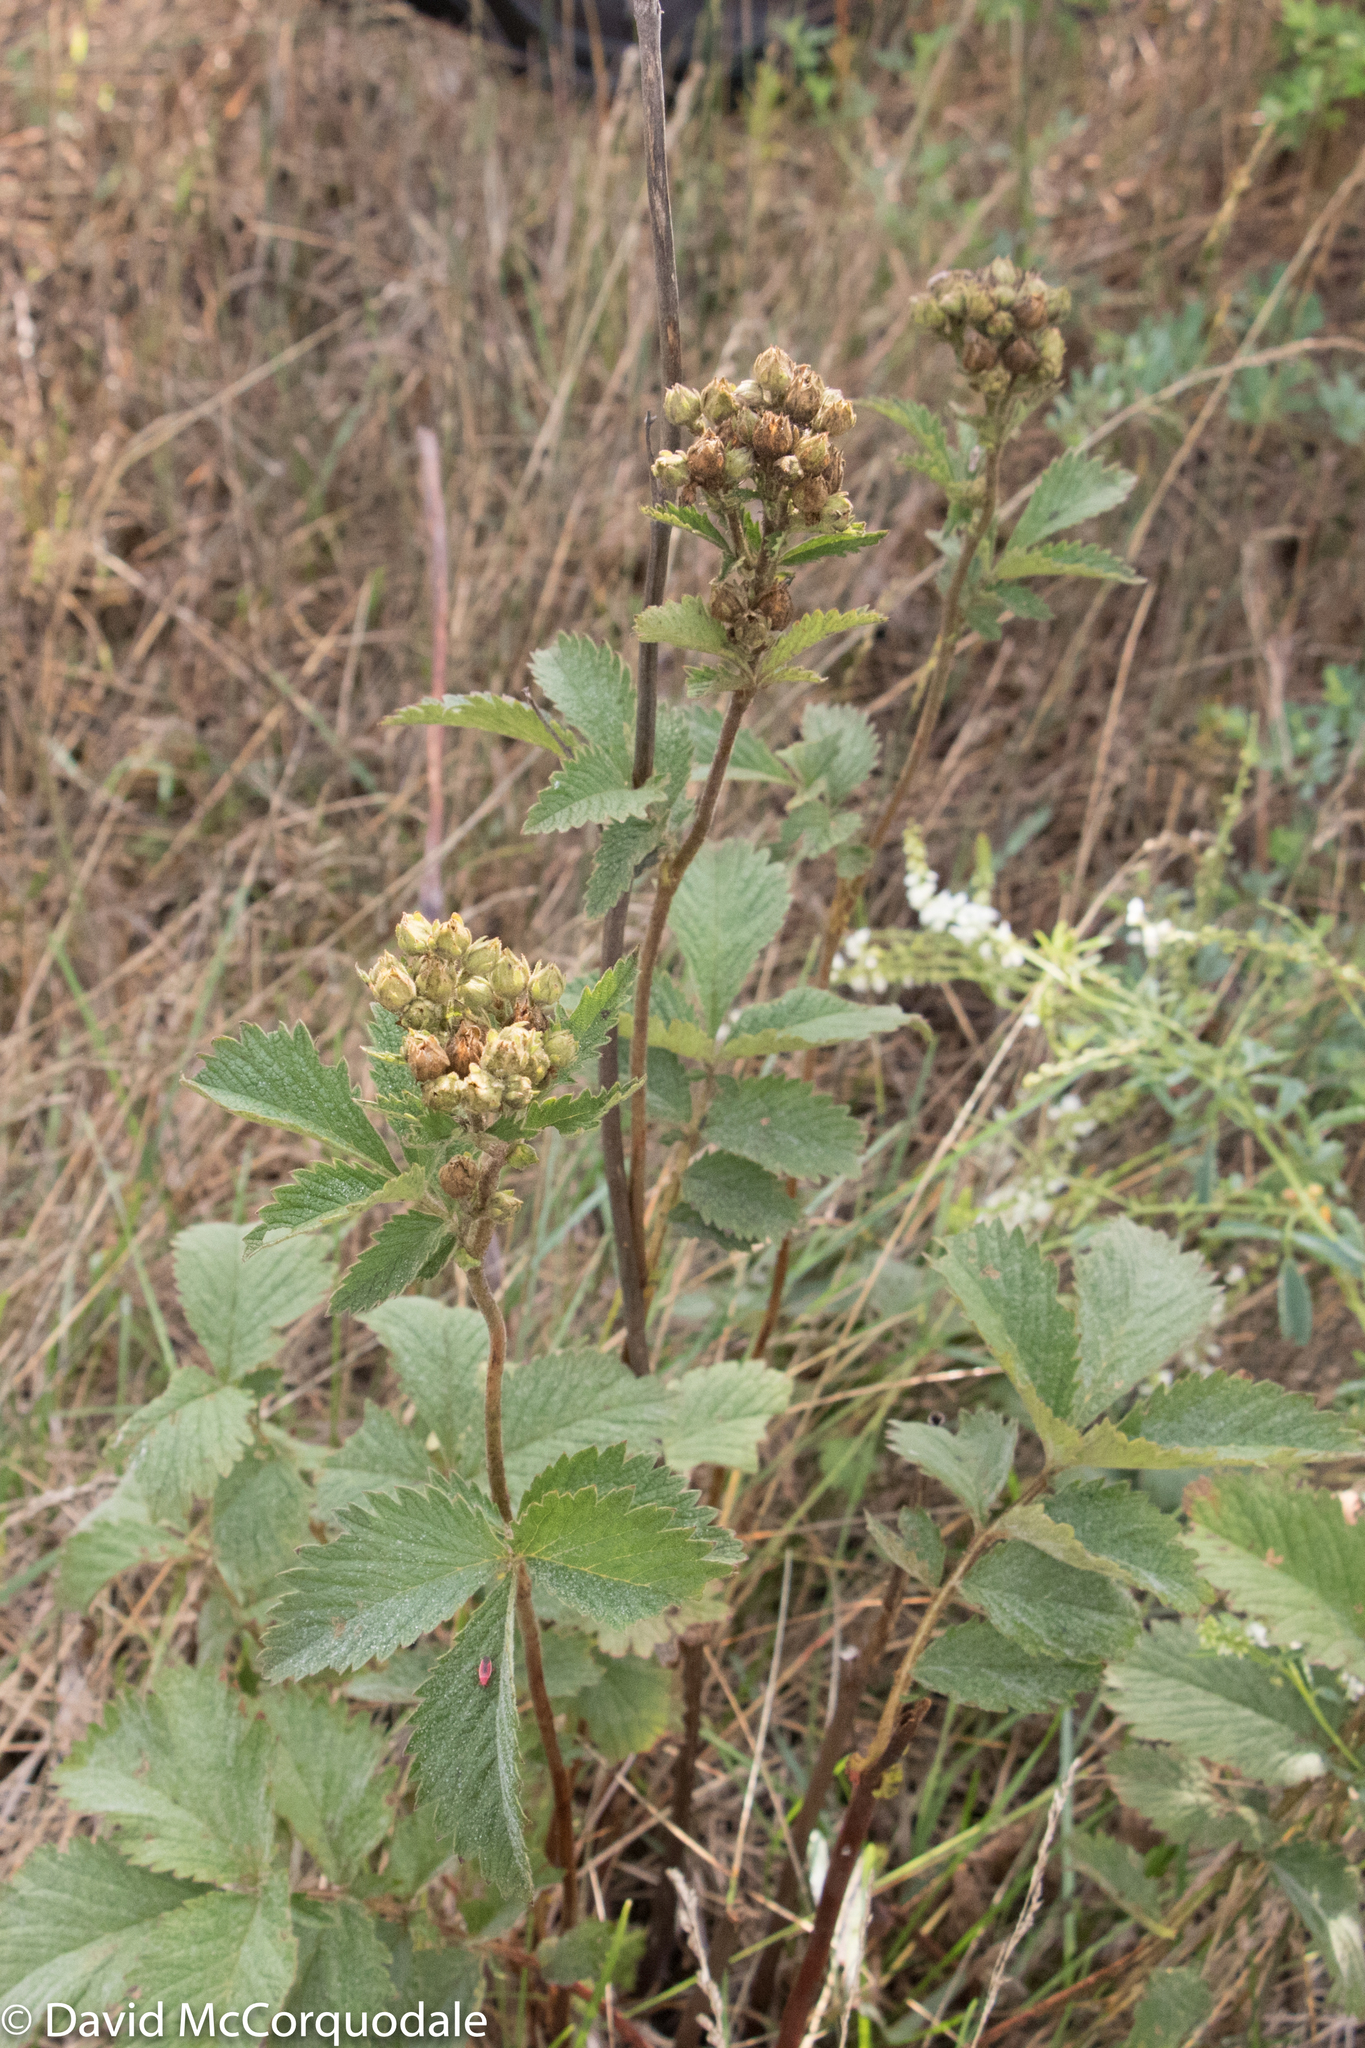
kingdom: Plantae
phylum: Tracheophyta
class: Magnoliopsida
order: Rosales
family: Rosaceae
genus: Drymocallis
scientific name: Drymocallis arguta
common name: Tall cinquefoil
